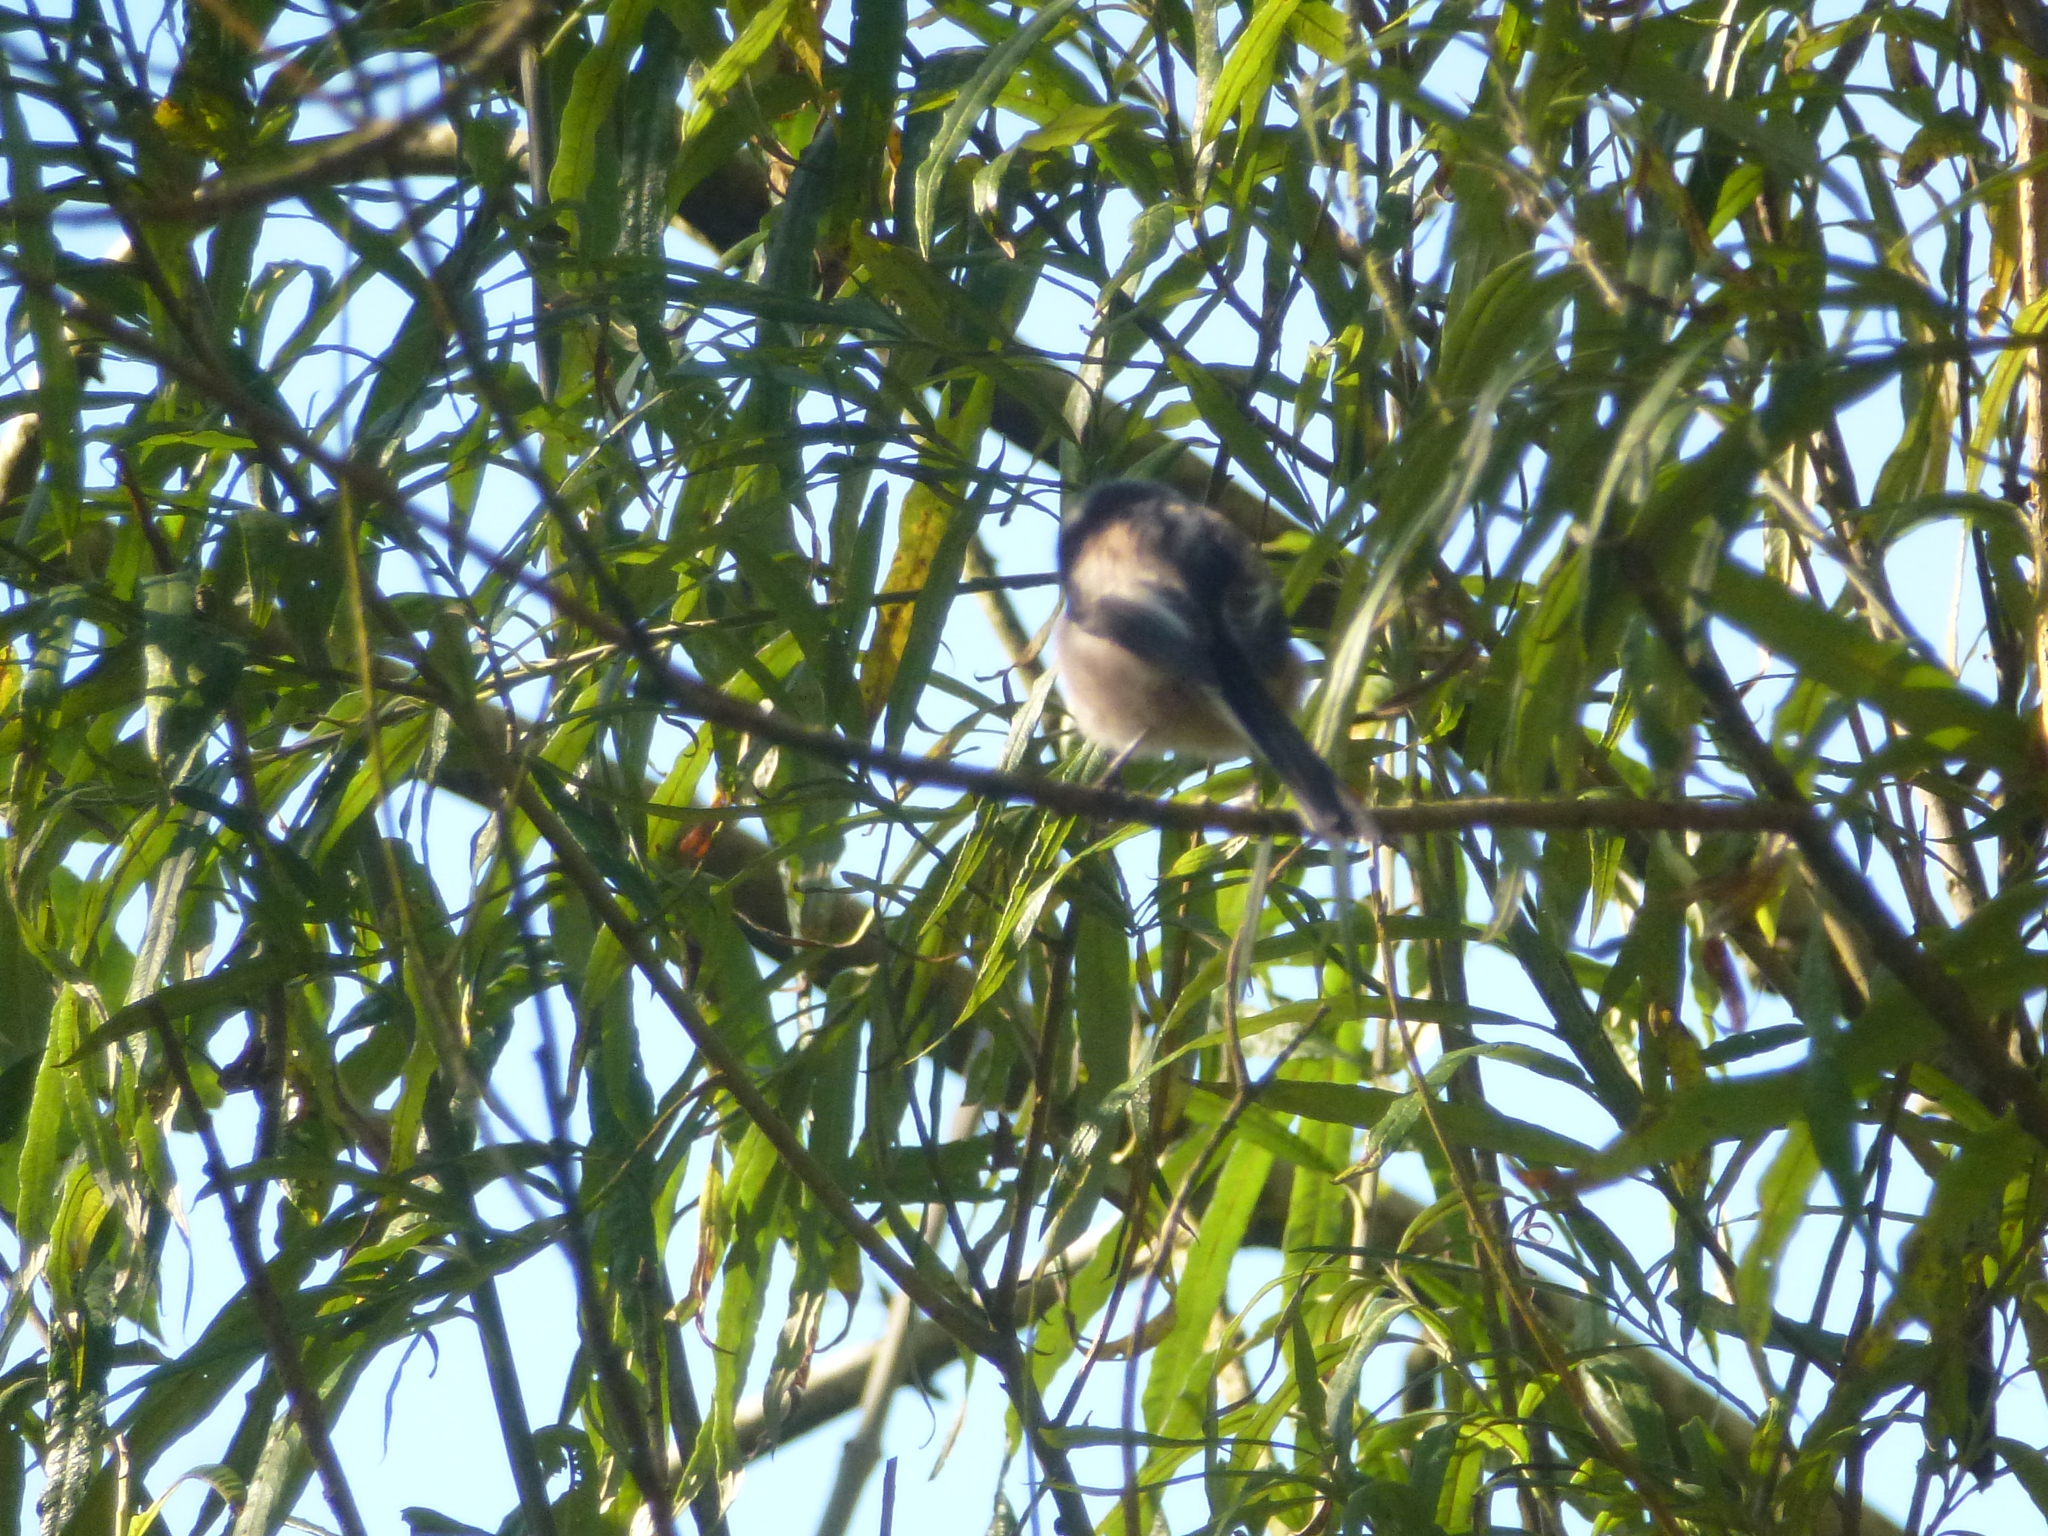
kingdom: Animalia
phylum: Chordata
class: Aves
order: Passeriformes
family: Aegithalidae
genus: Aegithalos
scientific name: Aegithalos caudatus
